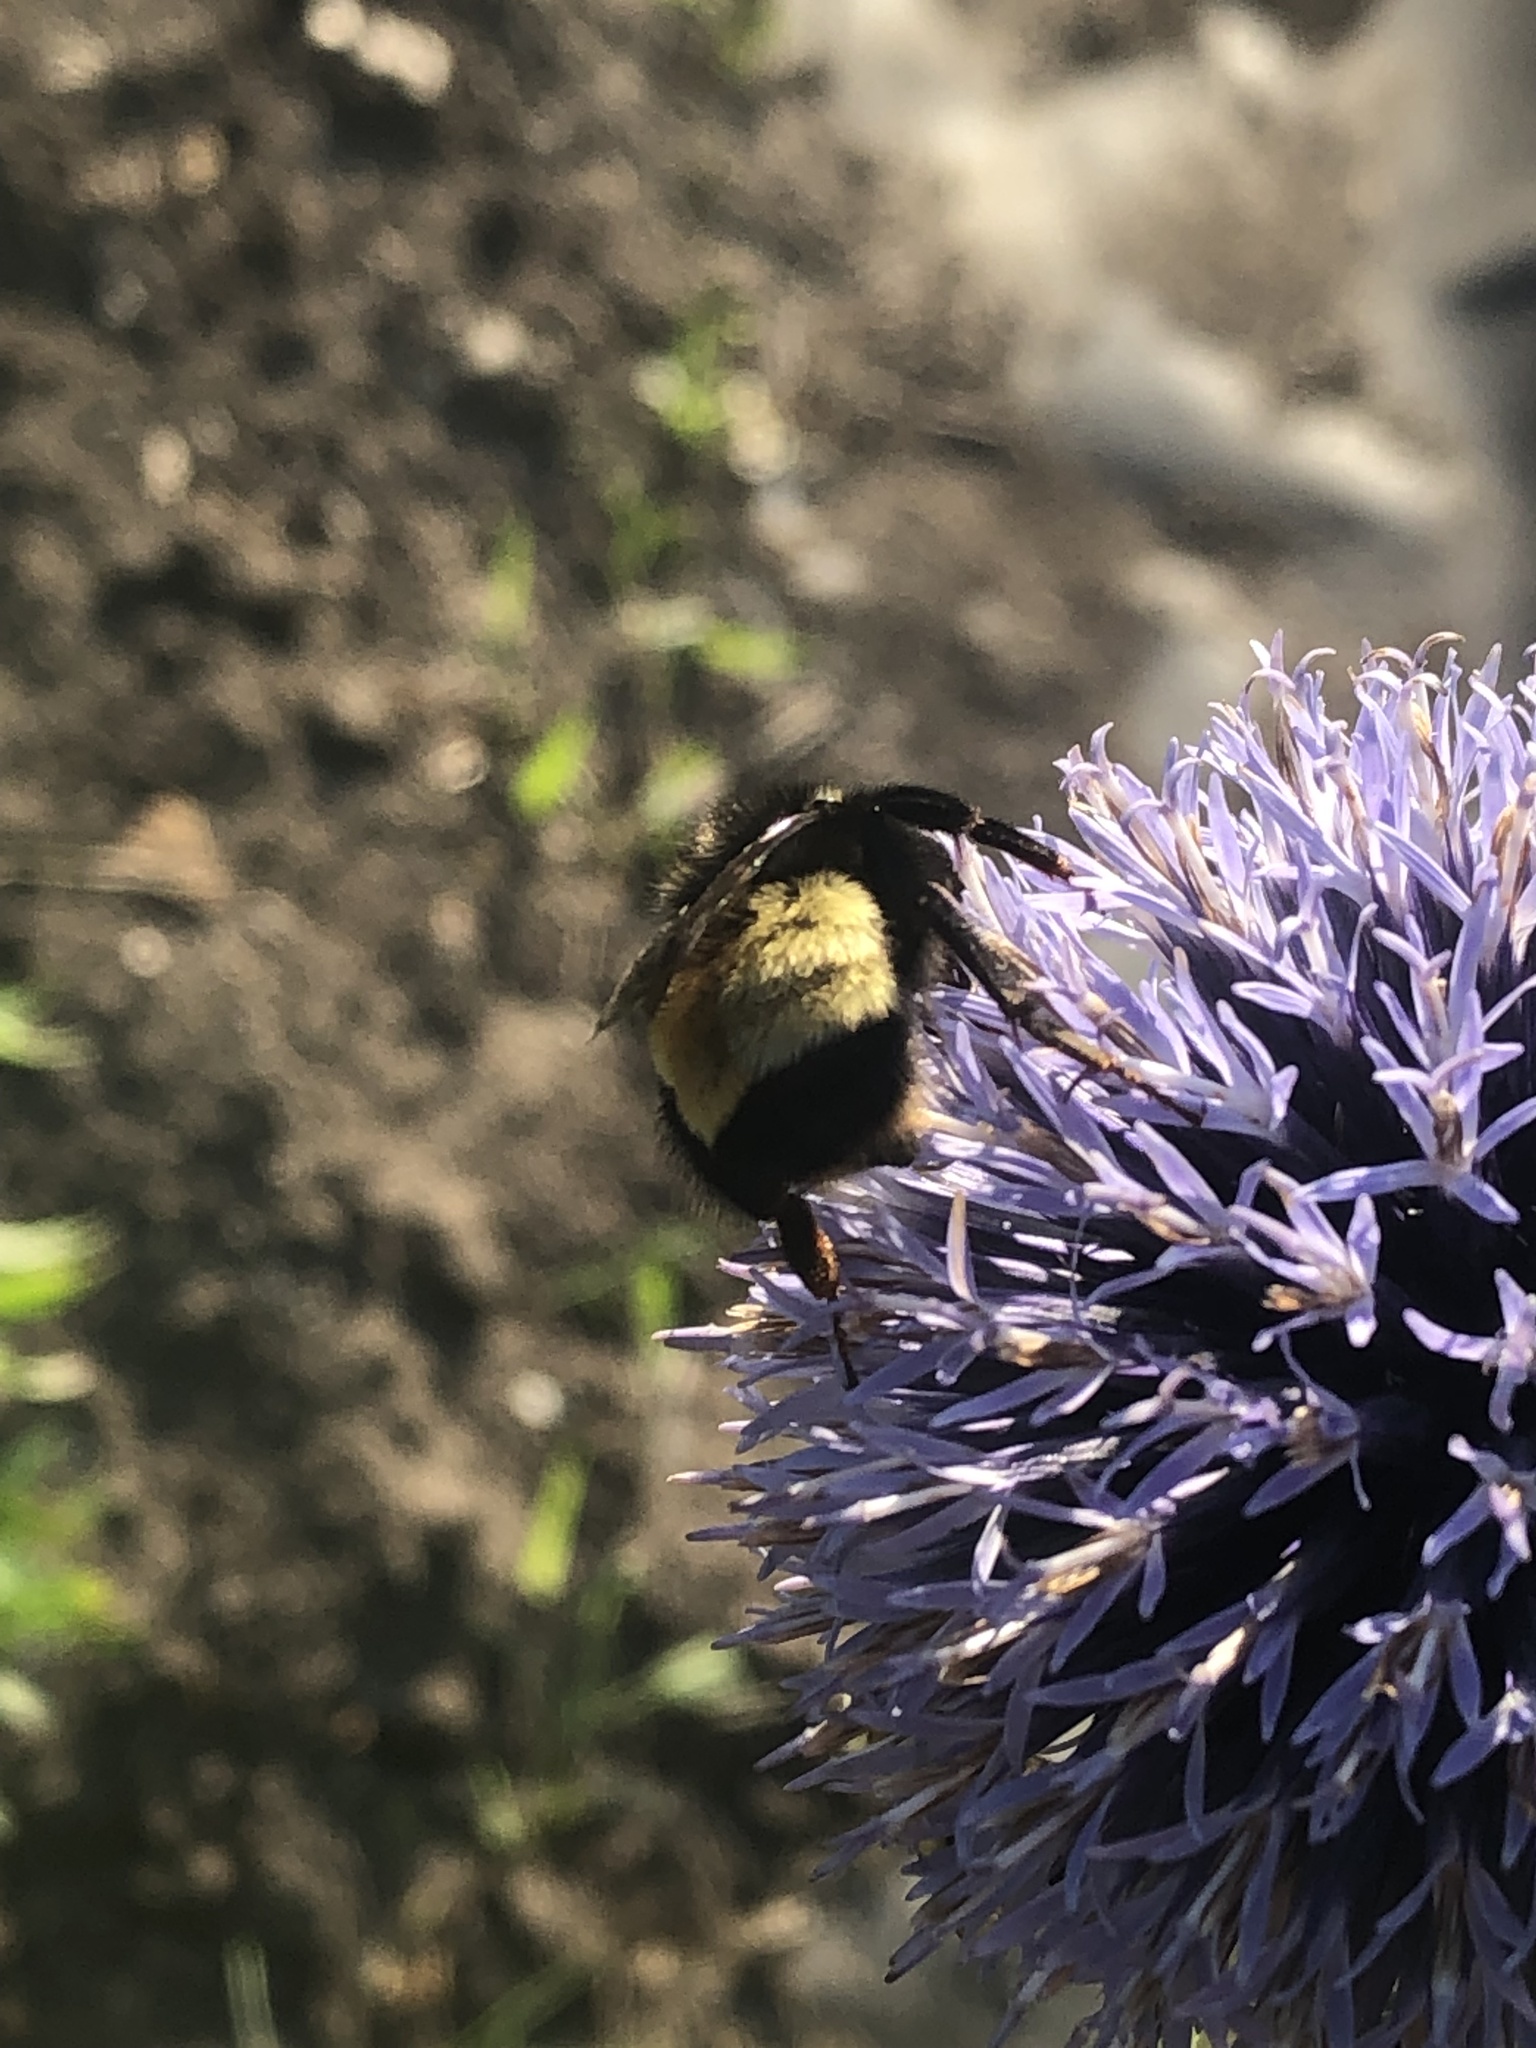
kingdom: Animalia
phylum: Arthropoda
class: Insecta
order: Hymenoptera
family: Apidae
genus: Bombus
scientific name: Bombus terricola
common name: Yellow-banded bumble bee
